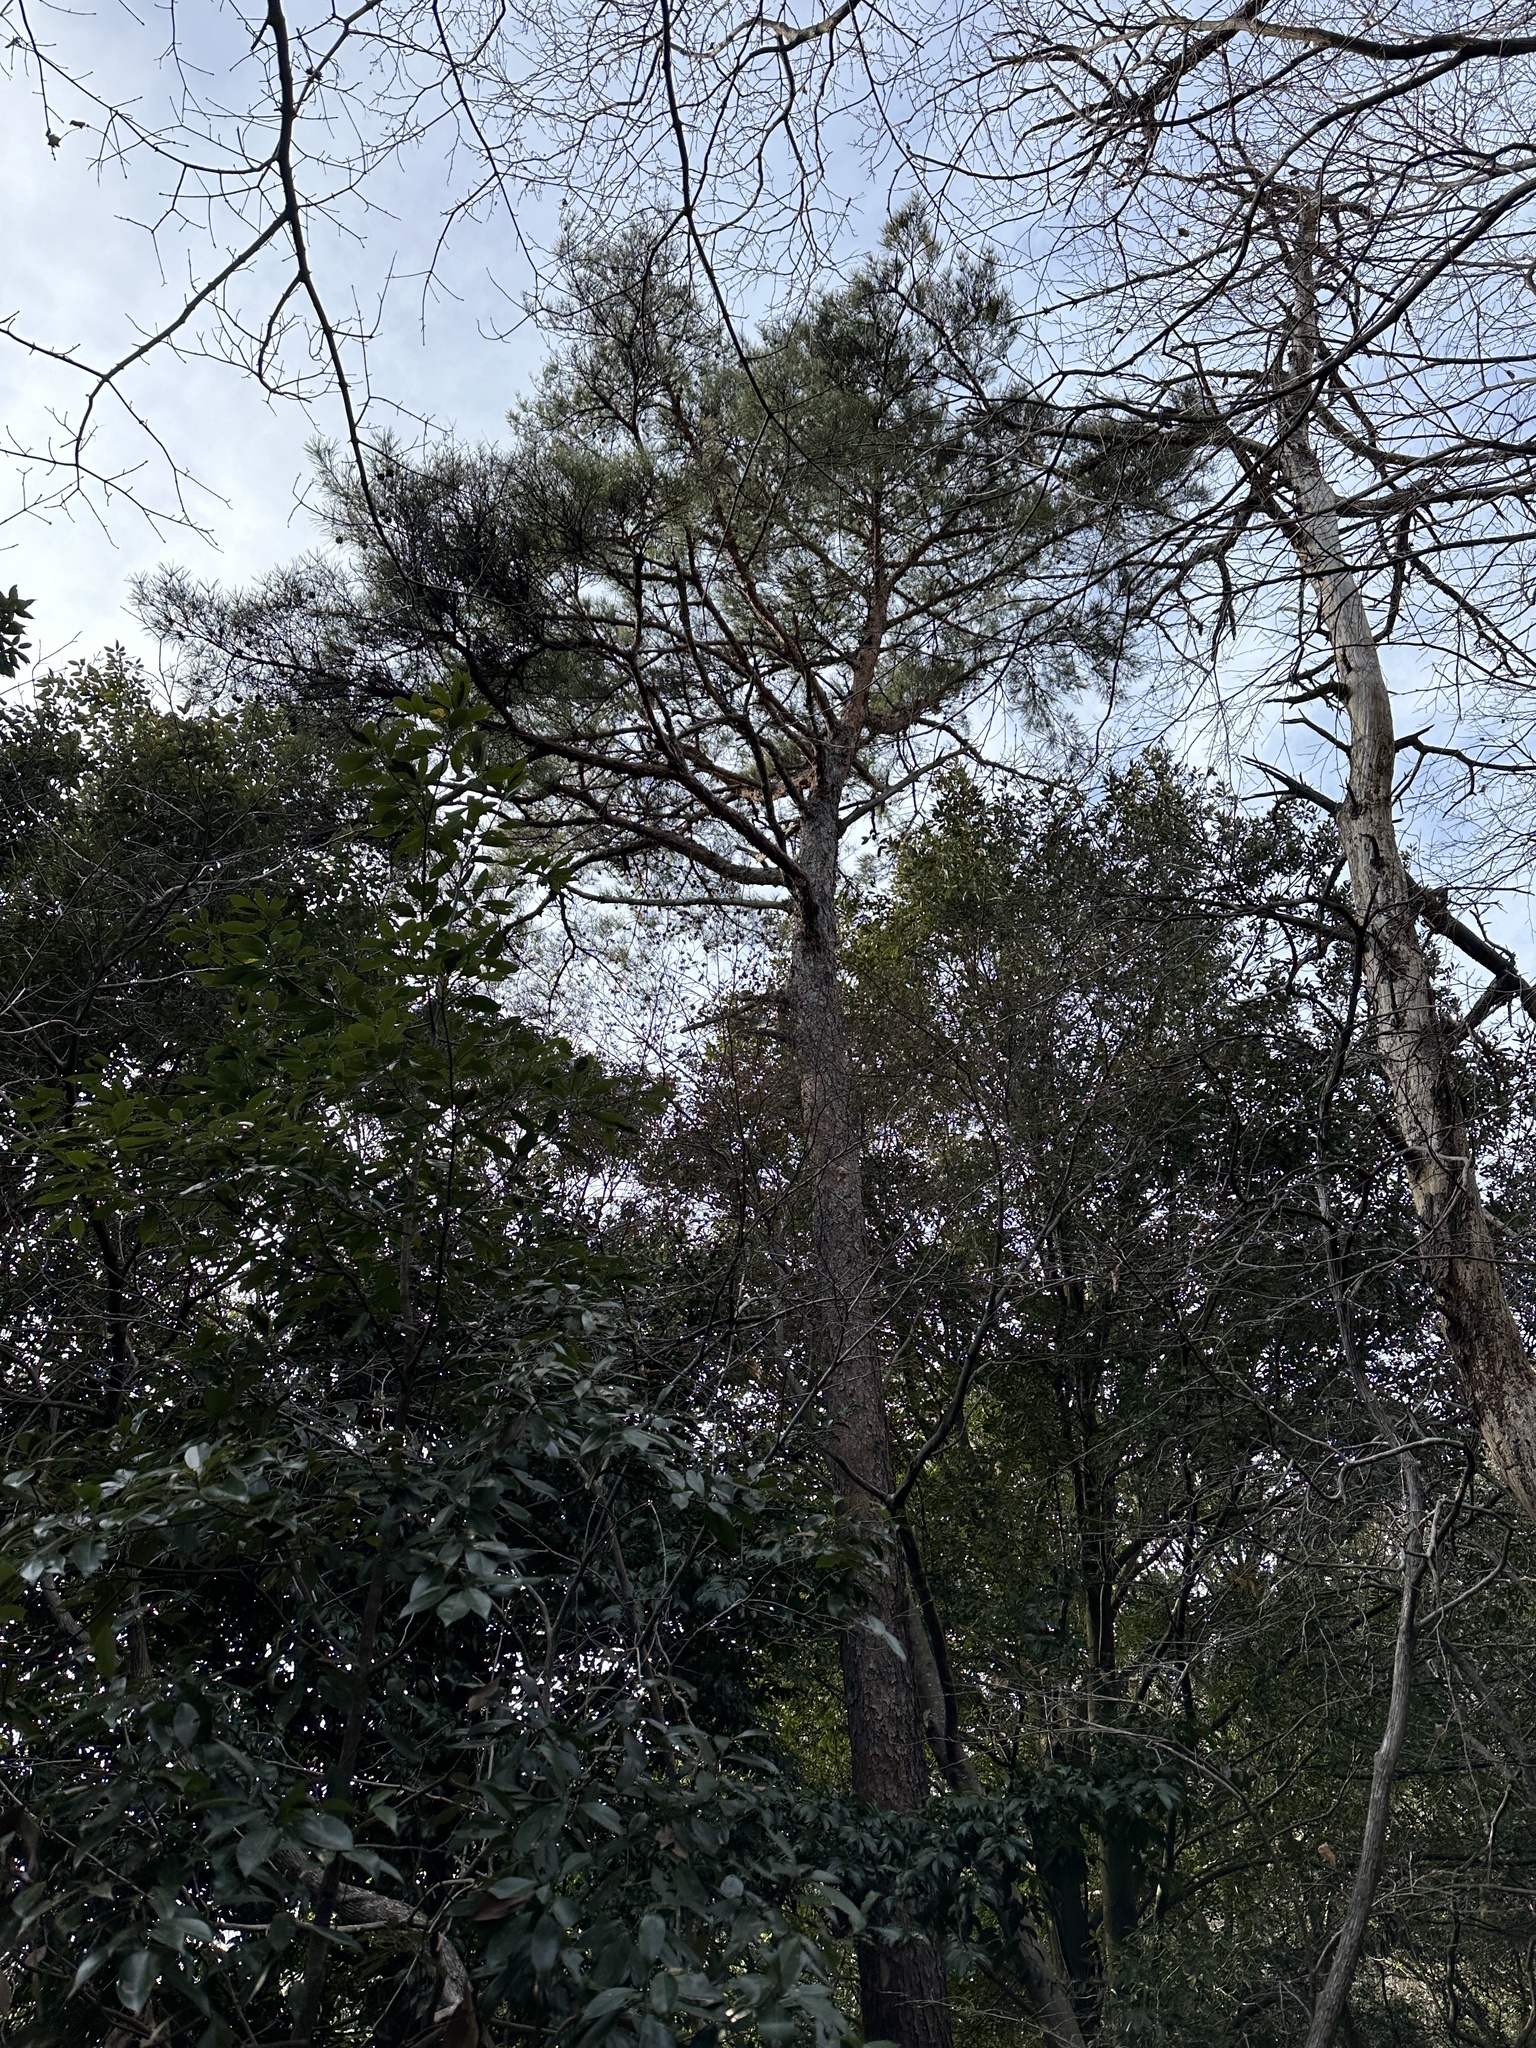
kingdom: Plantae
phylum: Tracheophyta
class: Pinopsida
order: Pinales
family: Pinaceae
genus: Pinus
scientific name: Pinus densiflora
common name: Japanese red pine
